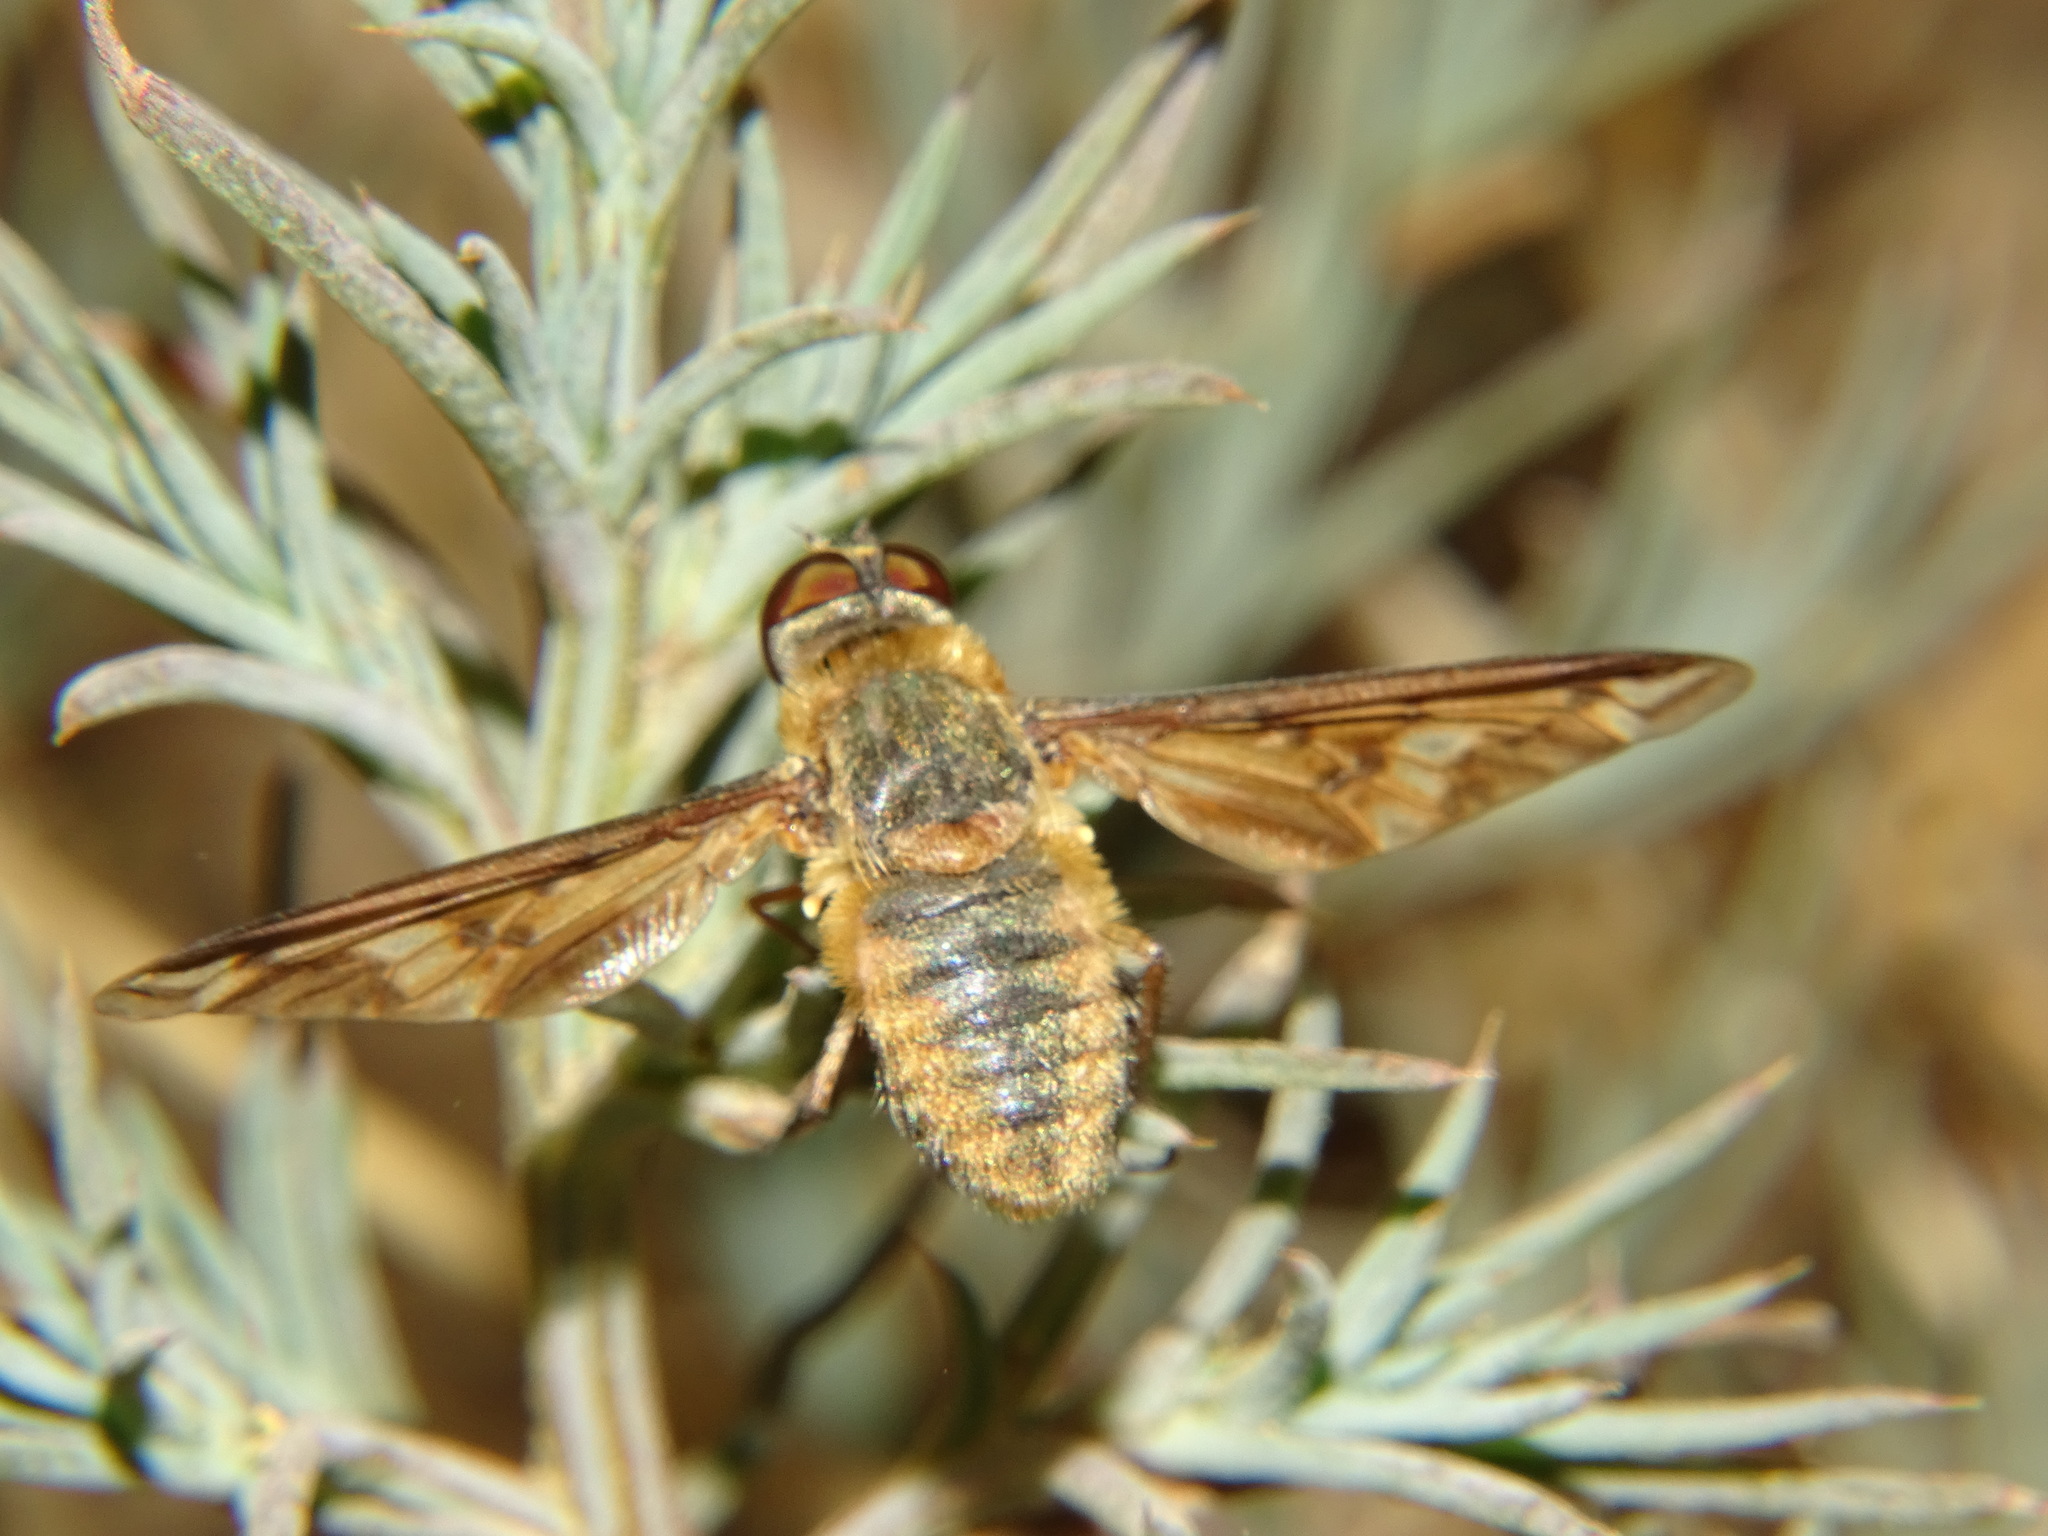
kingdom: Animalia
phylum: Arthropoda
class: Insecta
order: Diptera
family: Bombyliidae
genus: Poecilanthrax
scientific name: Poecilanthrax arethusa
